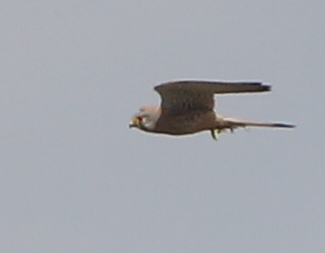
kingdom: Animalia
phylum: Chordata
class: Aves
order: Falconiformes
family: Falconidae
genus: Falco
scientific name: Falco tinnunculus
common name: Common kestrel
